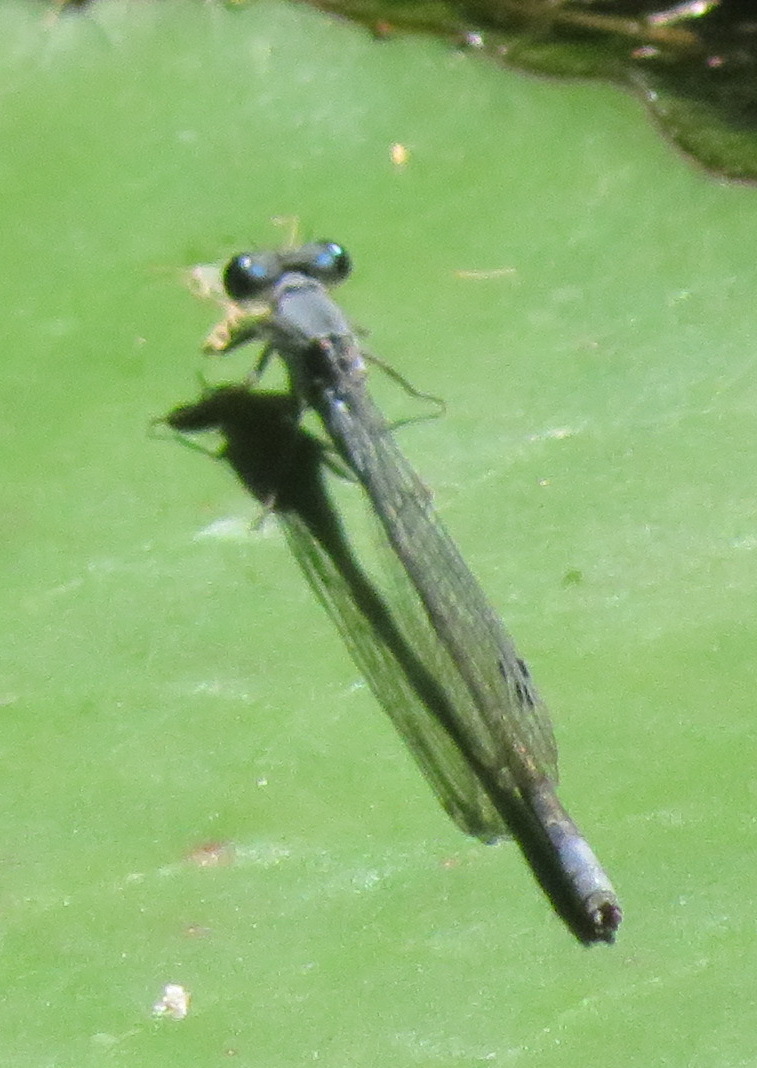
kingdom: Animalia
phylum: Arthropoda
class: Insecta
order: Odonata
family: Coenagrionidae
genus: Pseudagrion
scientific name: Pseudagrion salisburyense
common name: Slate sprite
